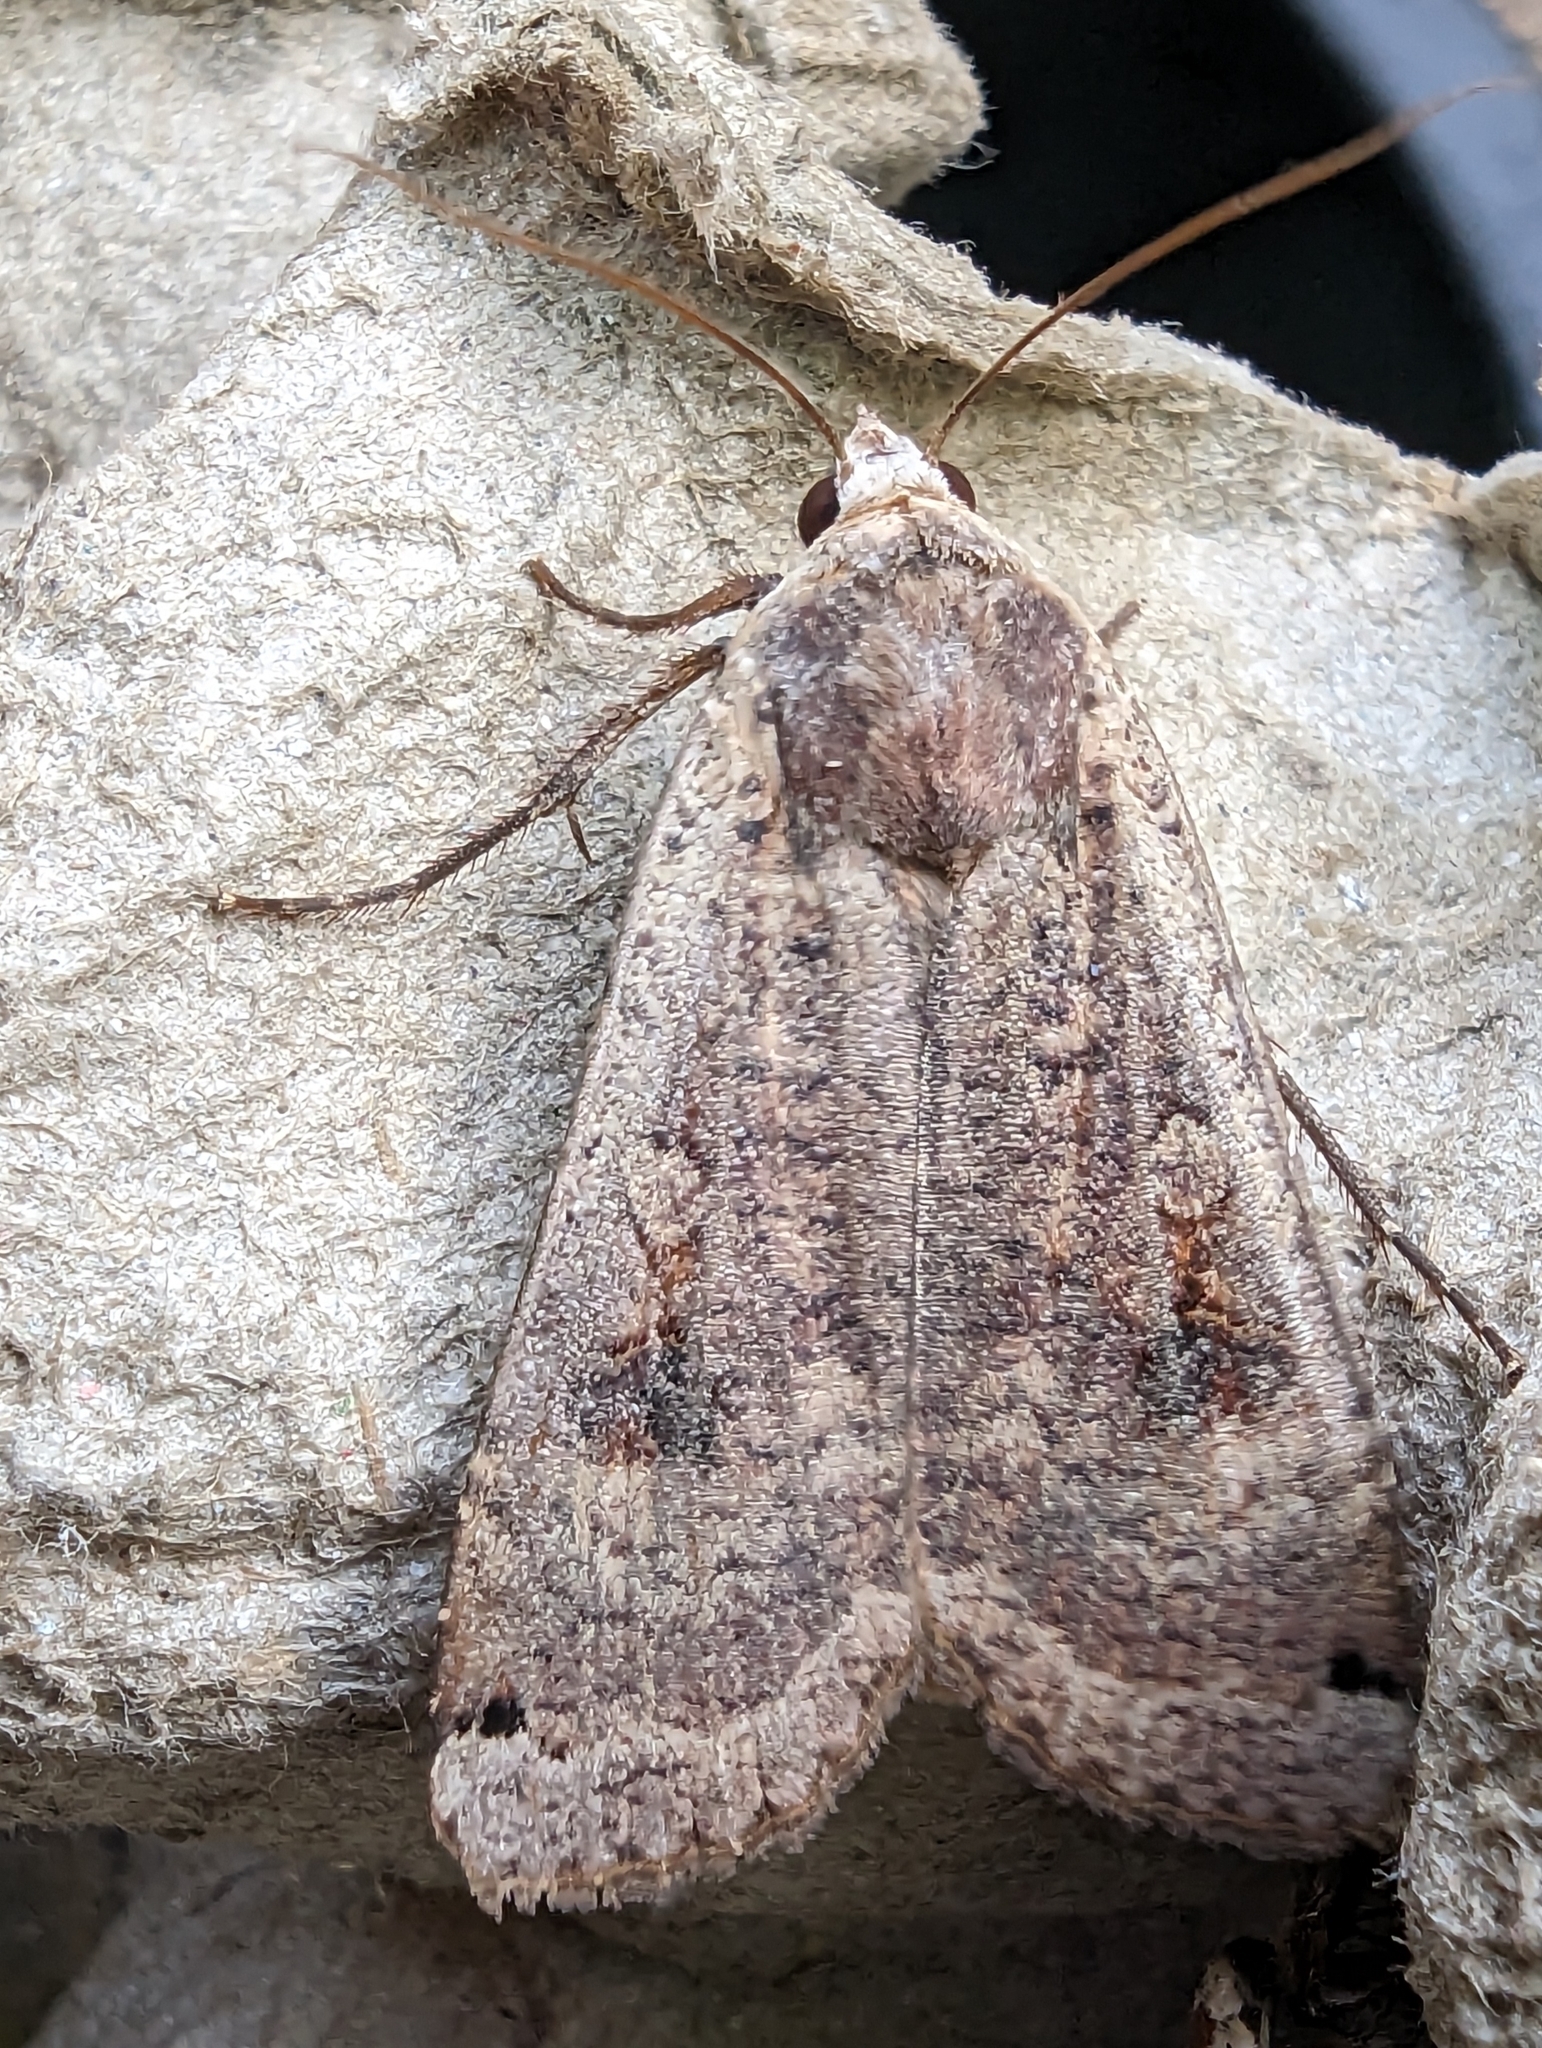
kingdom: Animalia
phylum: Arthropoda
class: Insecta
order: Lepidoptera
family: Noctuidae
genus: Noctua
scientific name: Noctua pronuba
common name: Large yellow underwing
